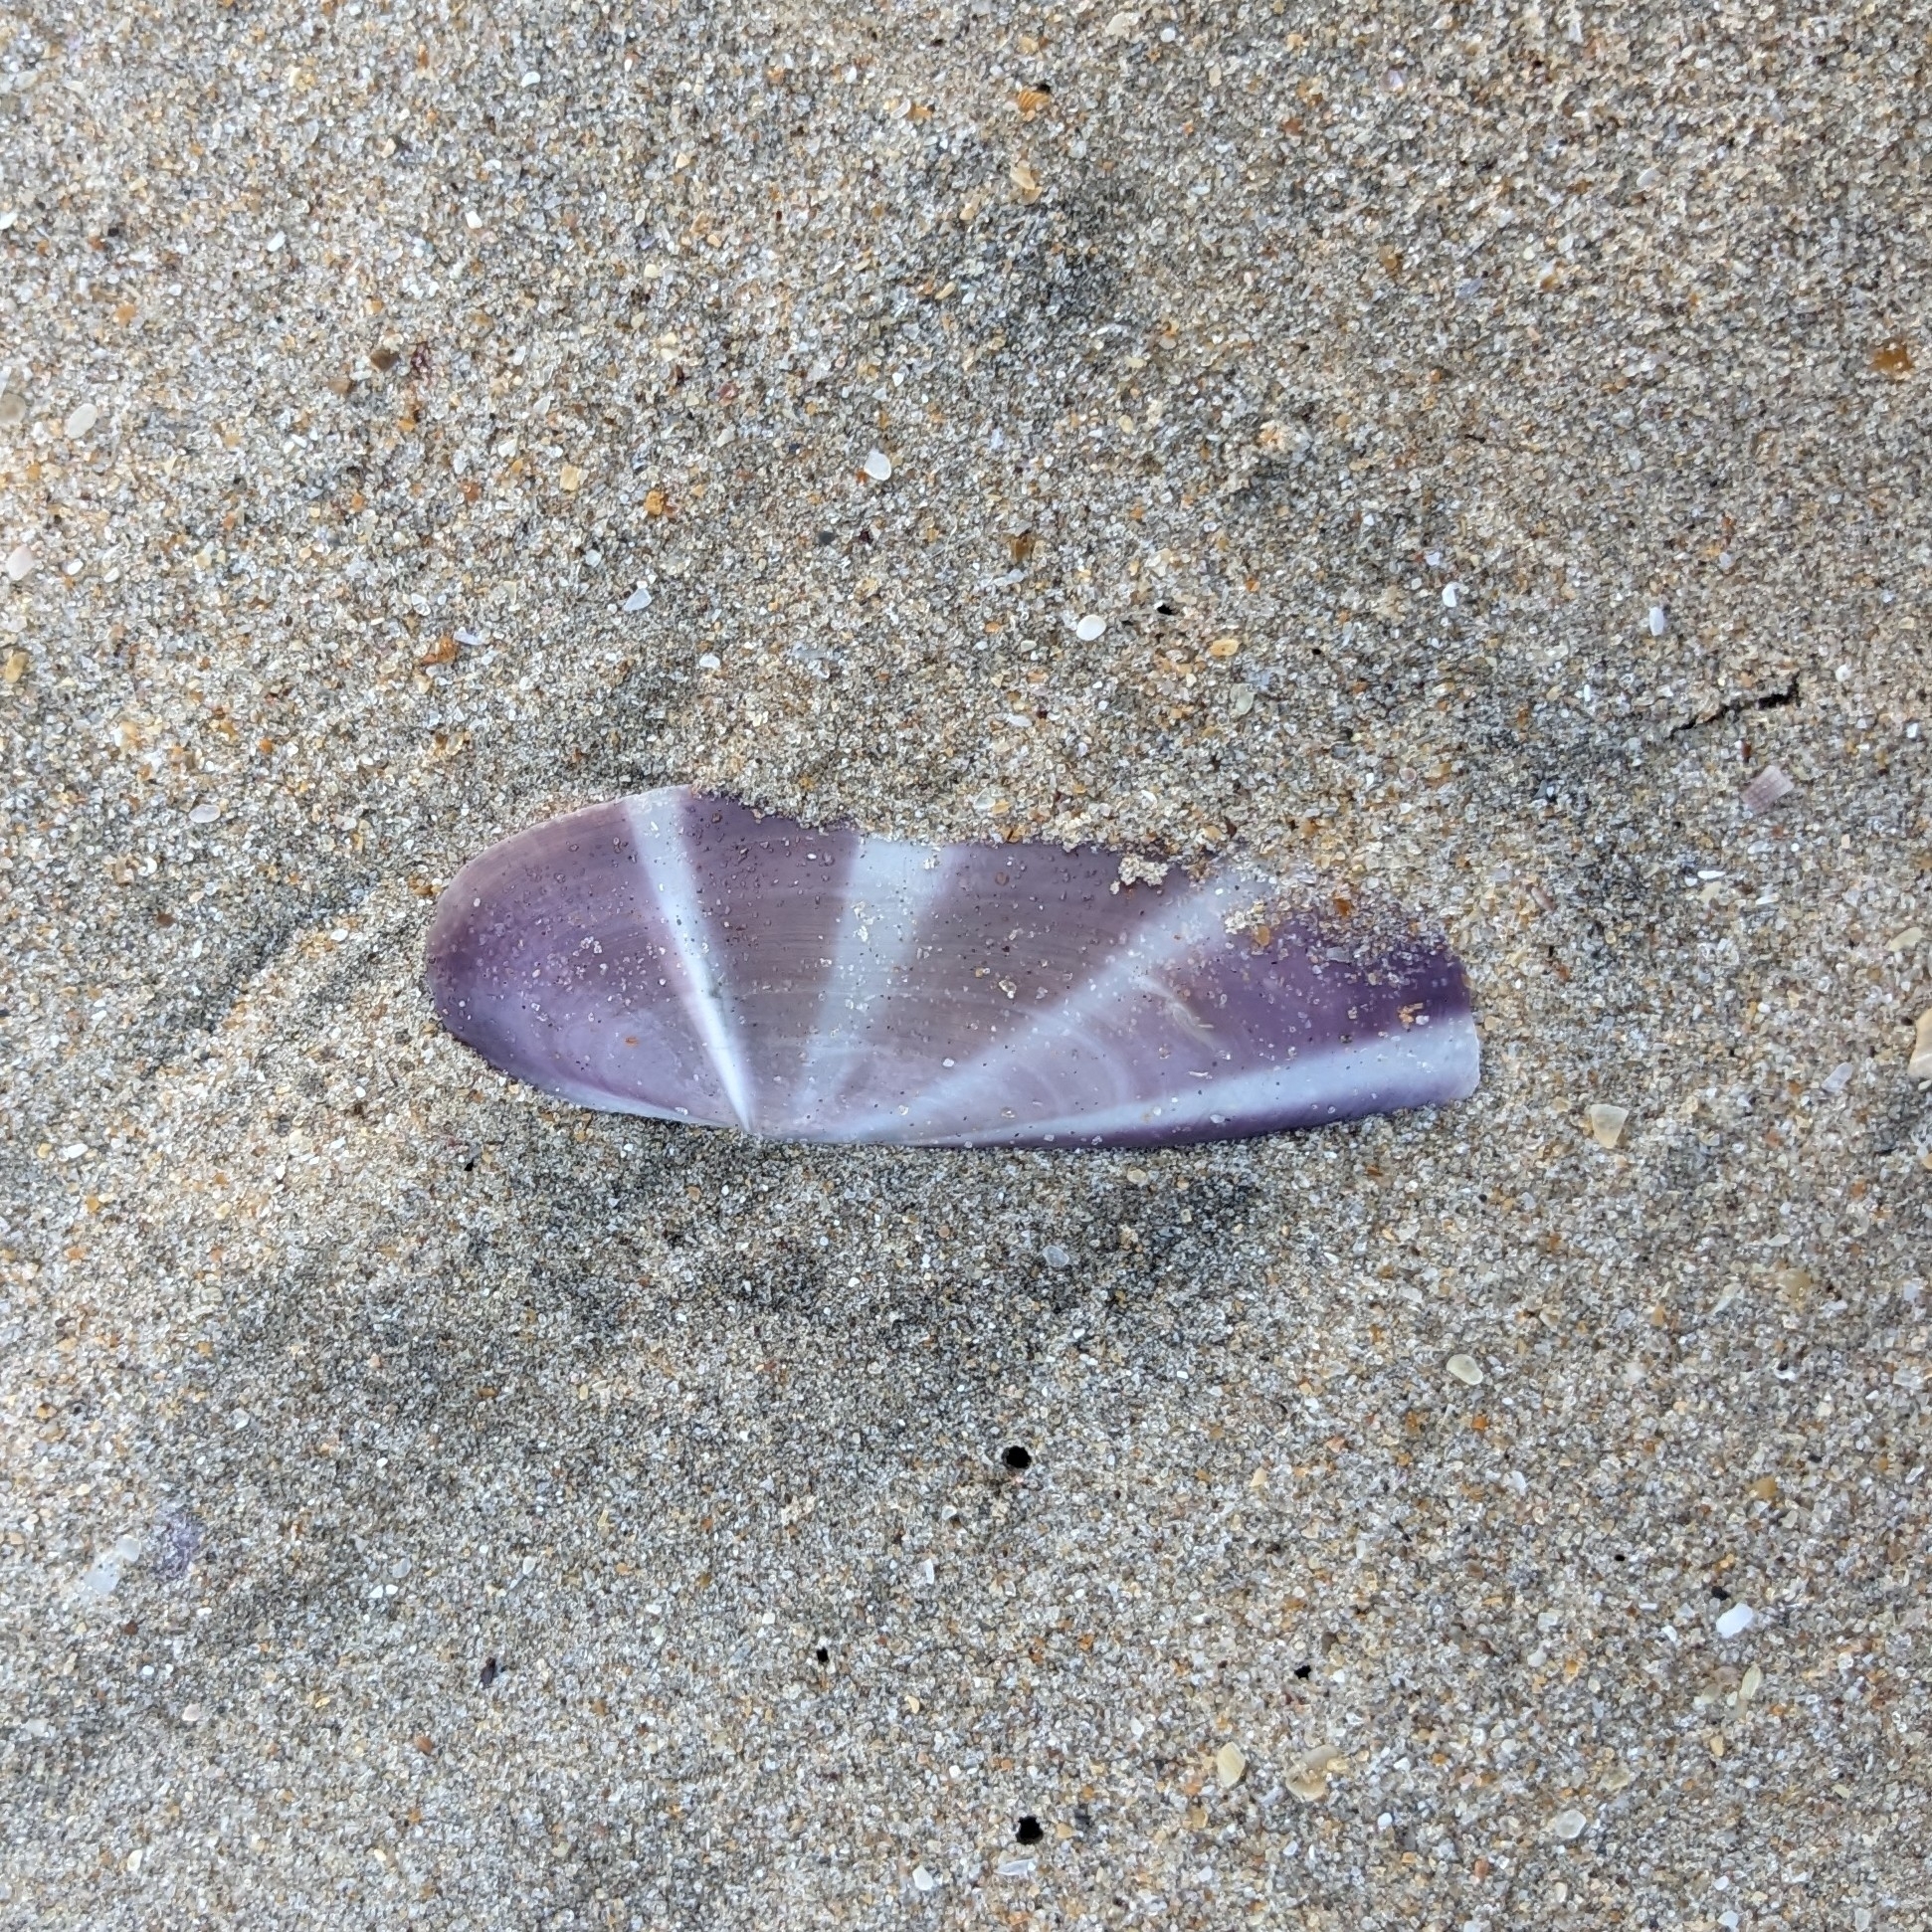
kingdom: Animalia
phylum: Mollusca
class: Bivalvia
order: Adapedonta
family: Pharidae
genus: Siliqua
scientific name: Siliqua radiata
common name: Sunset razor clam
